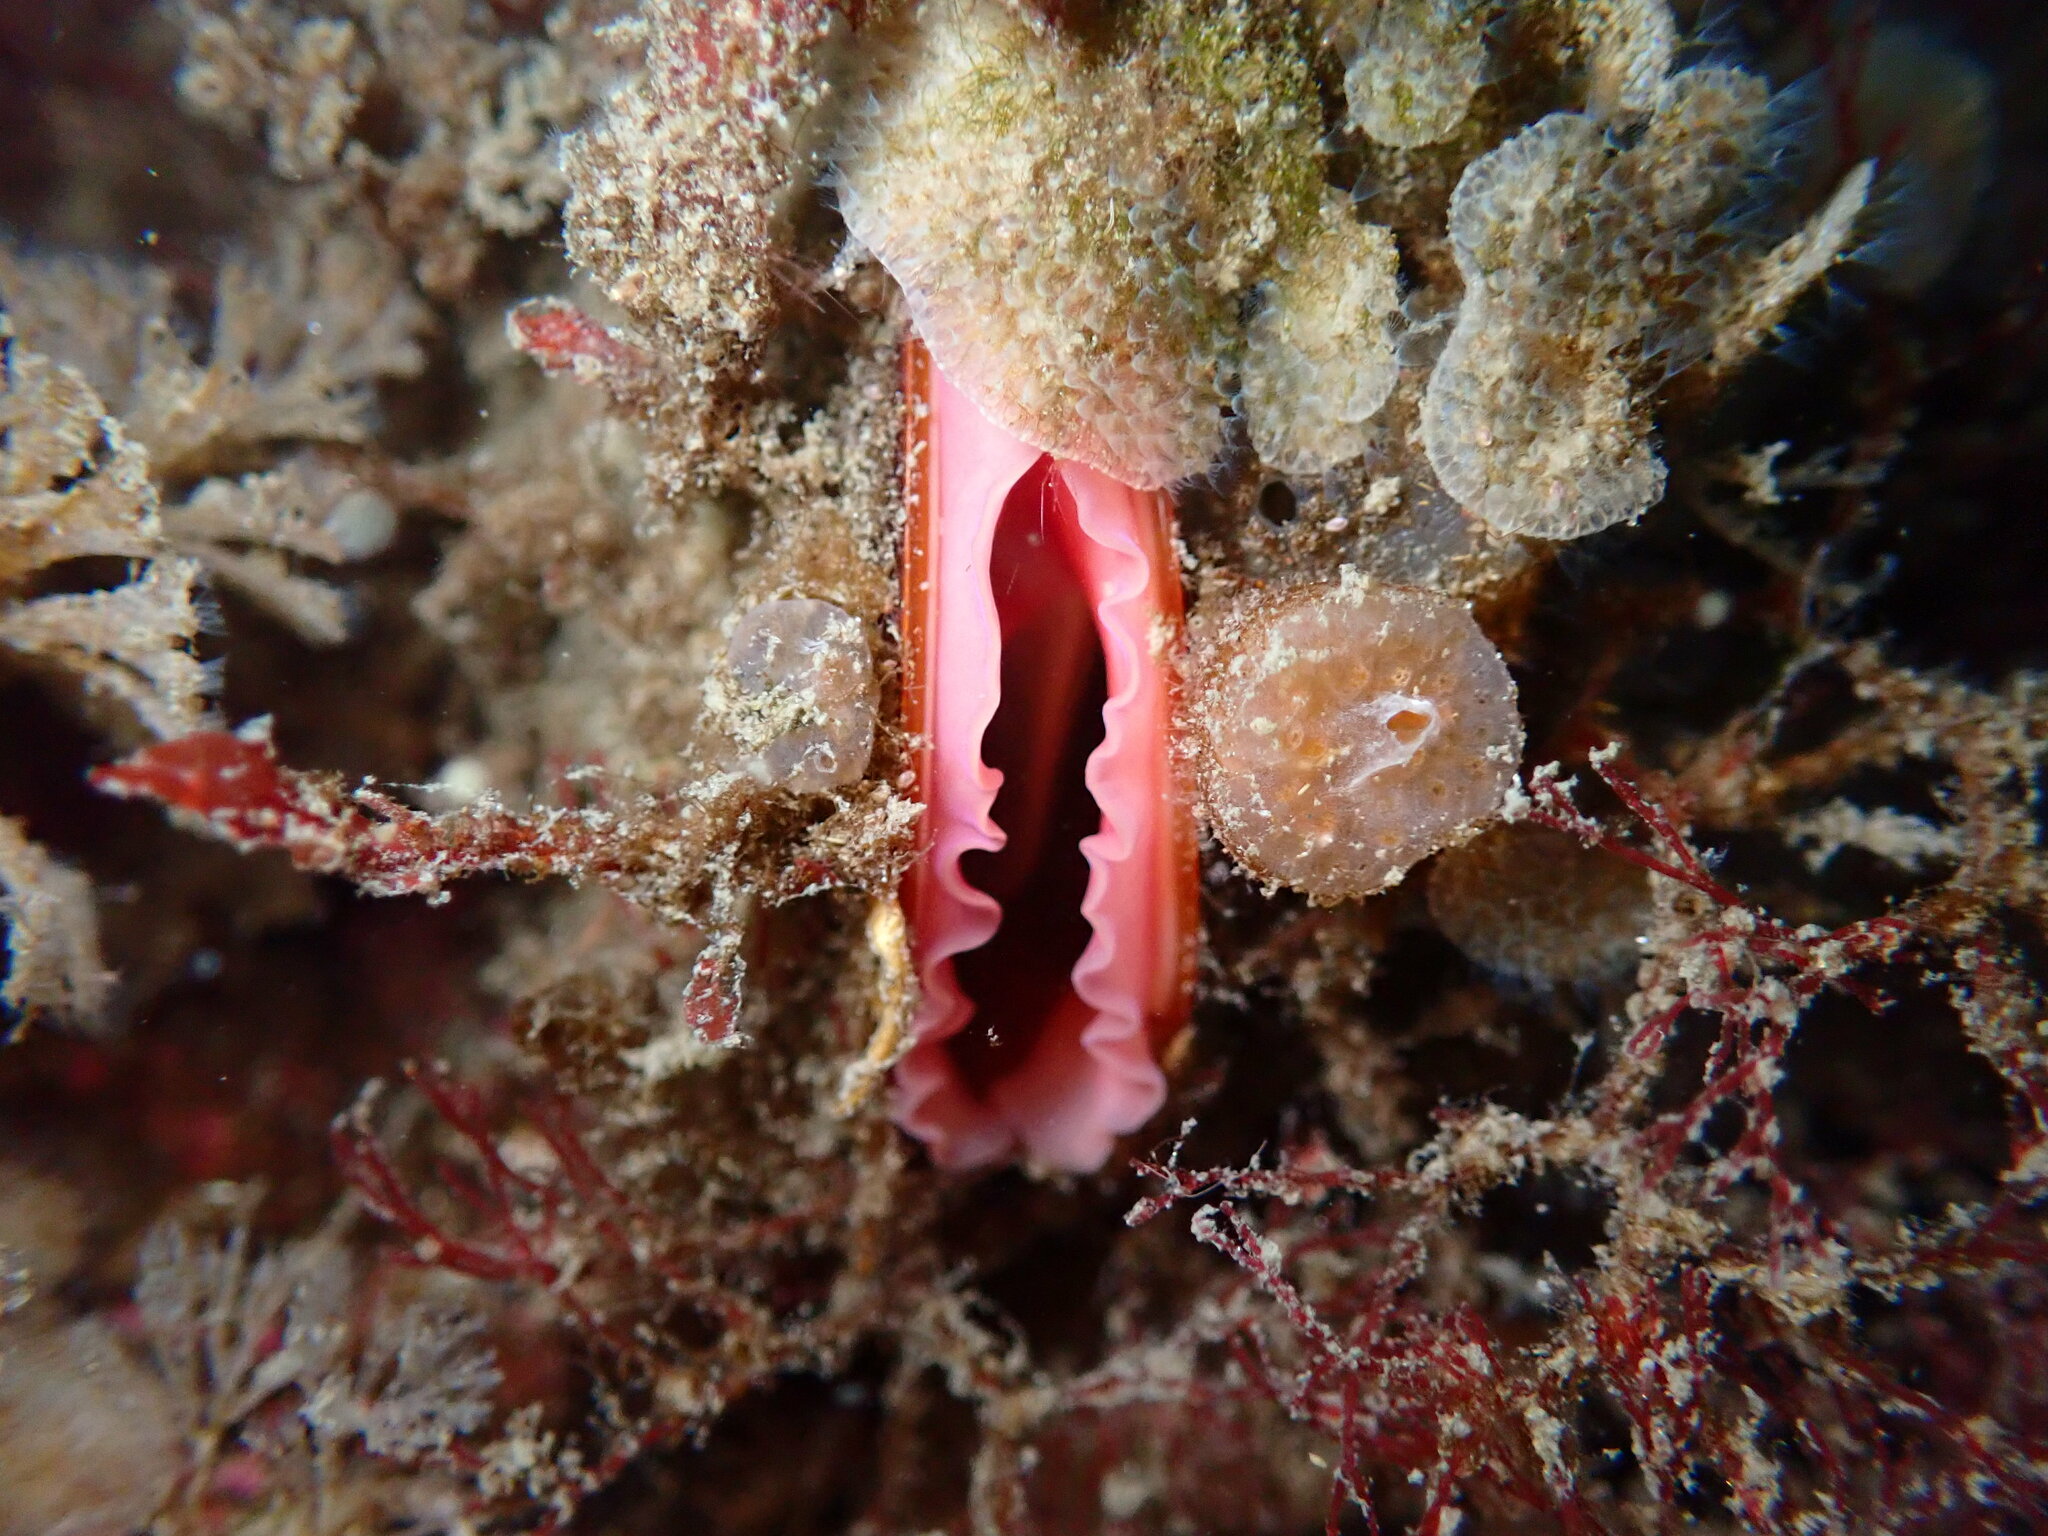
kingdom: Animalia
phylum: Mollusca
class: Bivalvia
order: Mytilida
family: Mytilidae
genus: Modiolus
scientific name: Modiolus modiolus
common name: Horse-mussel
